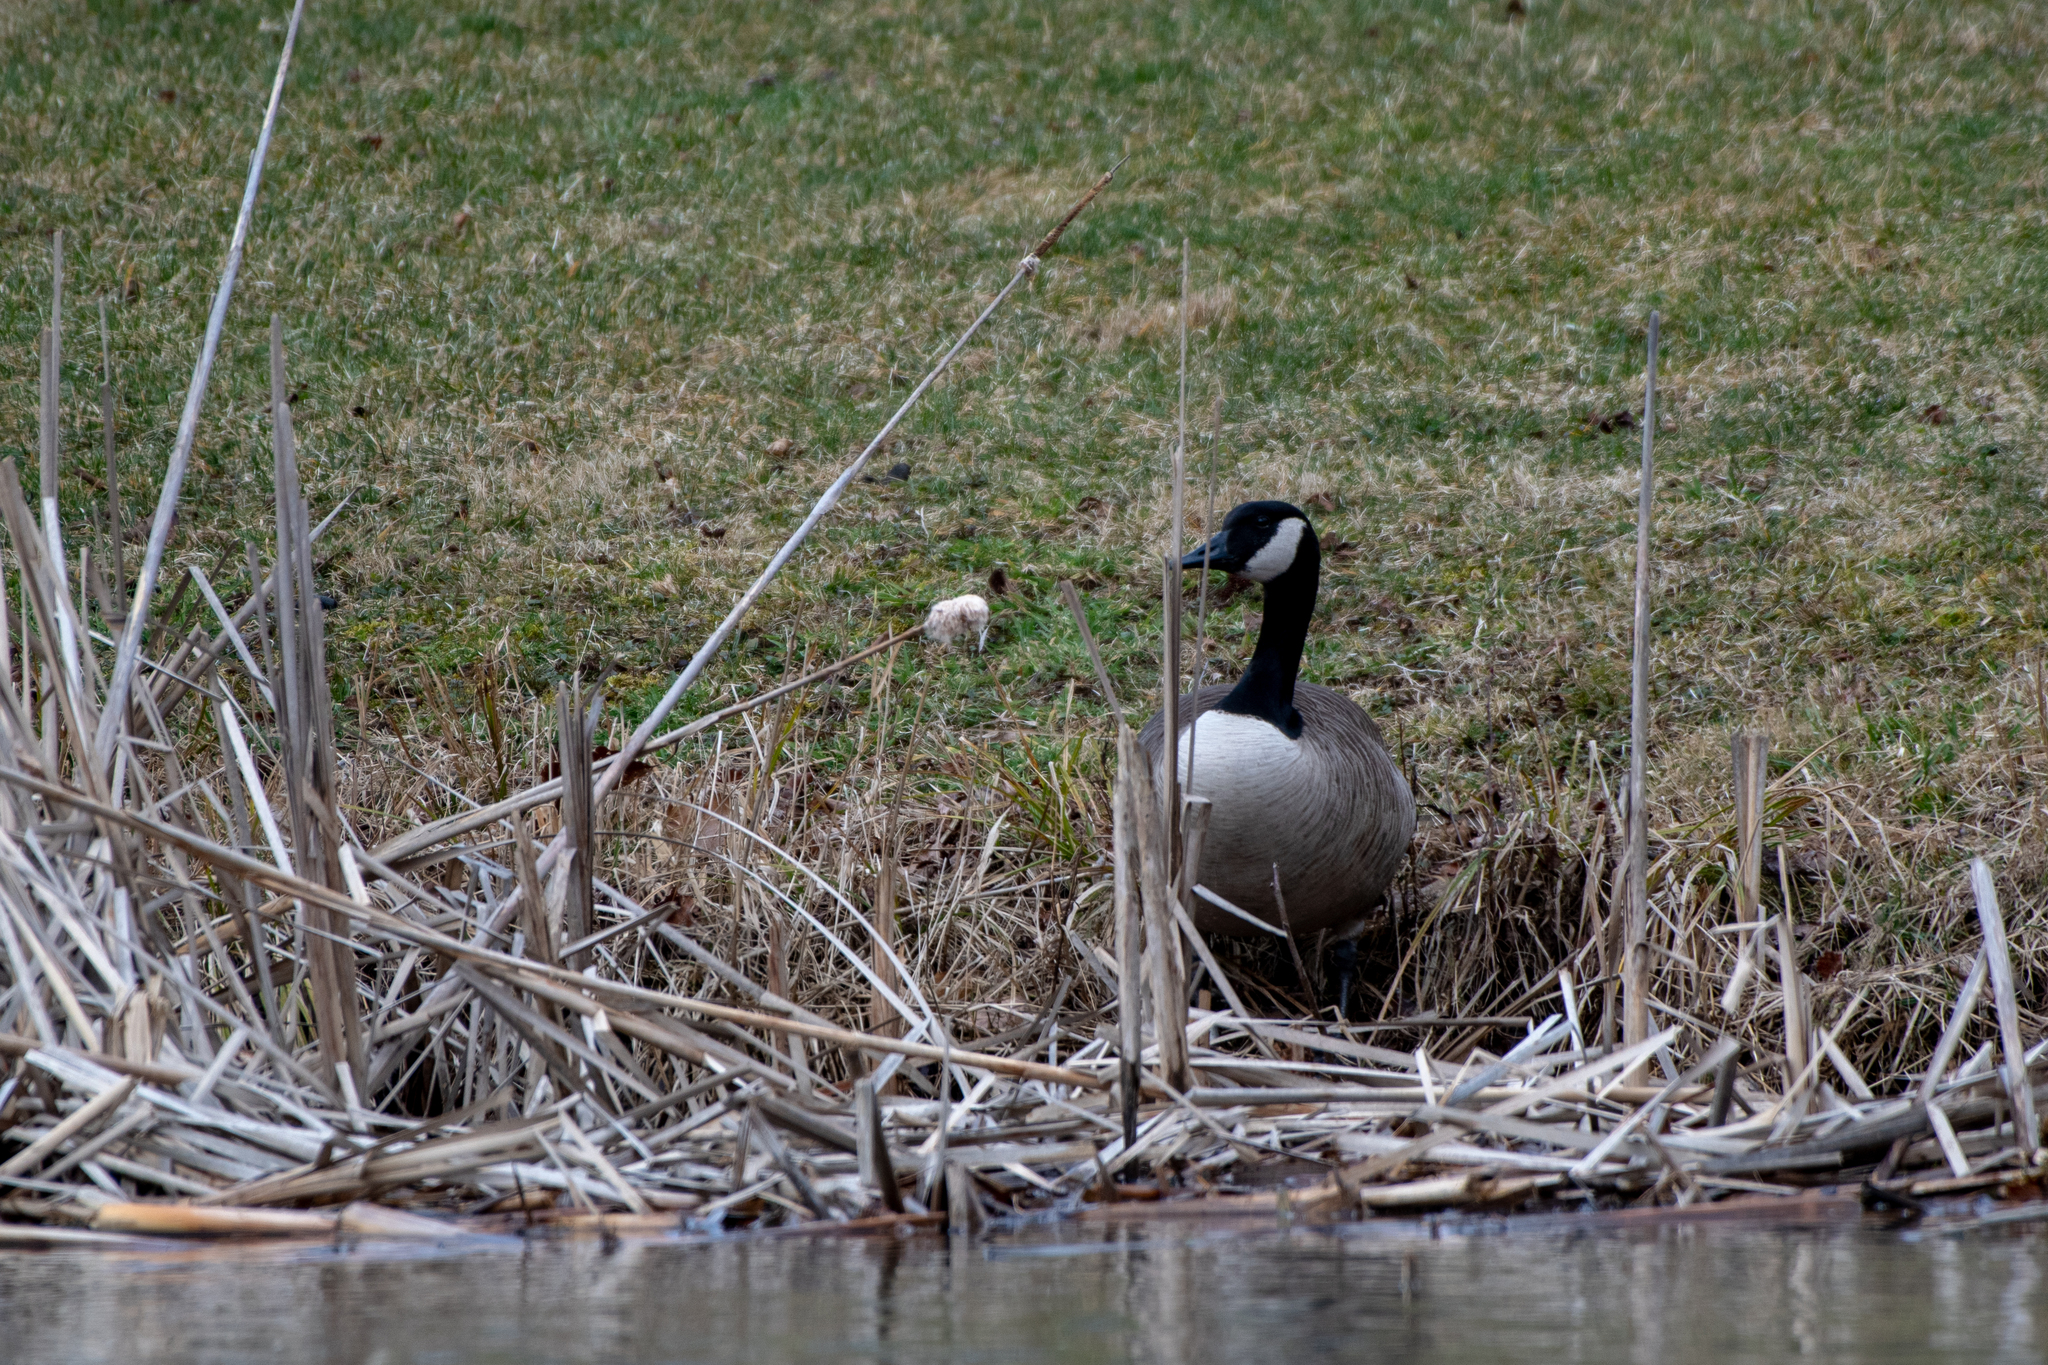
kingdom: Animalia
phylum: Chordata
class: Aves
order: Anseriformes
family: Anatidae
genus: Branta
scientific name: Branta canadensis
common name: Canada goose
